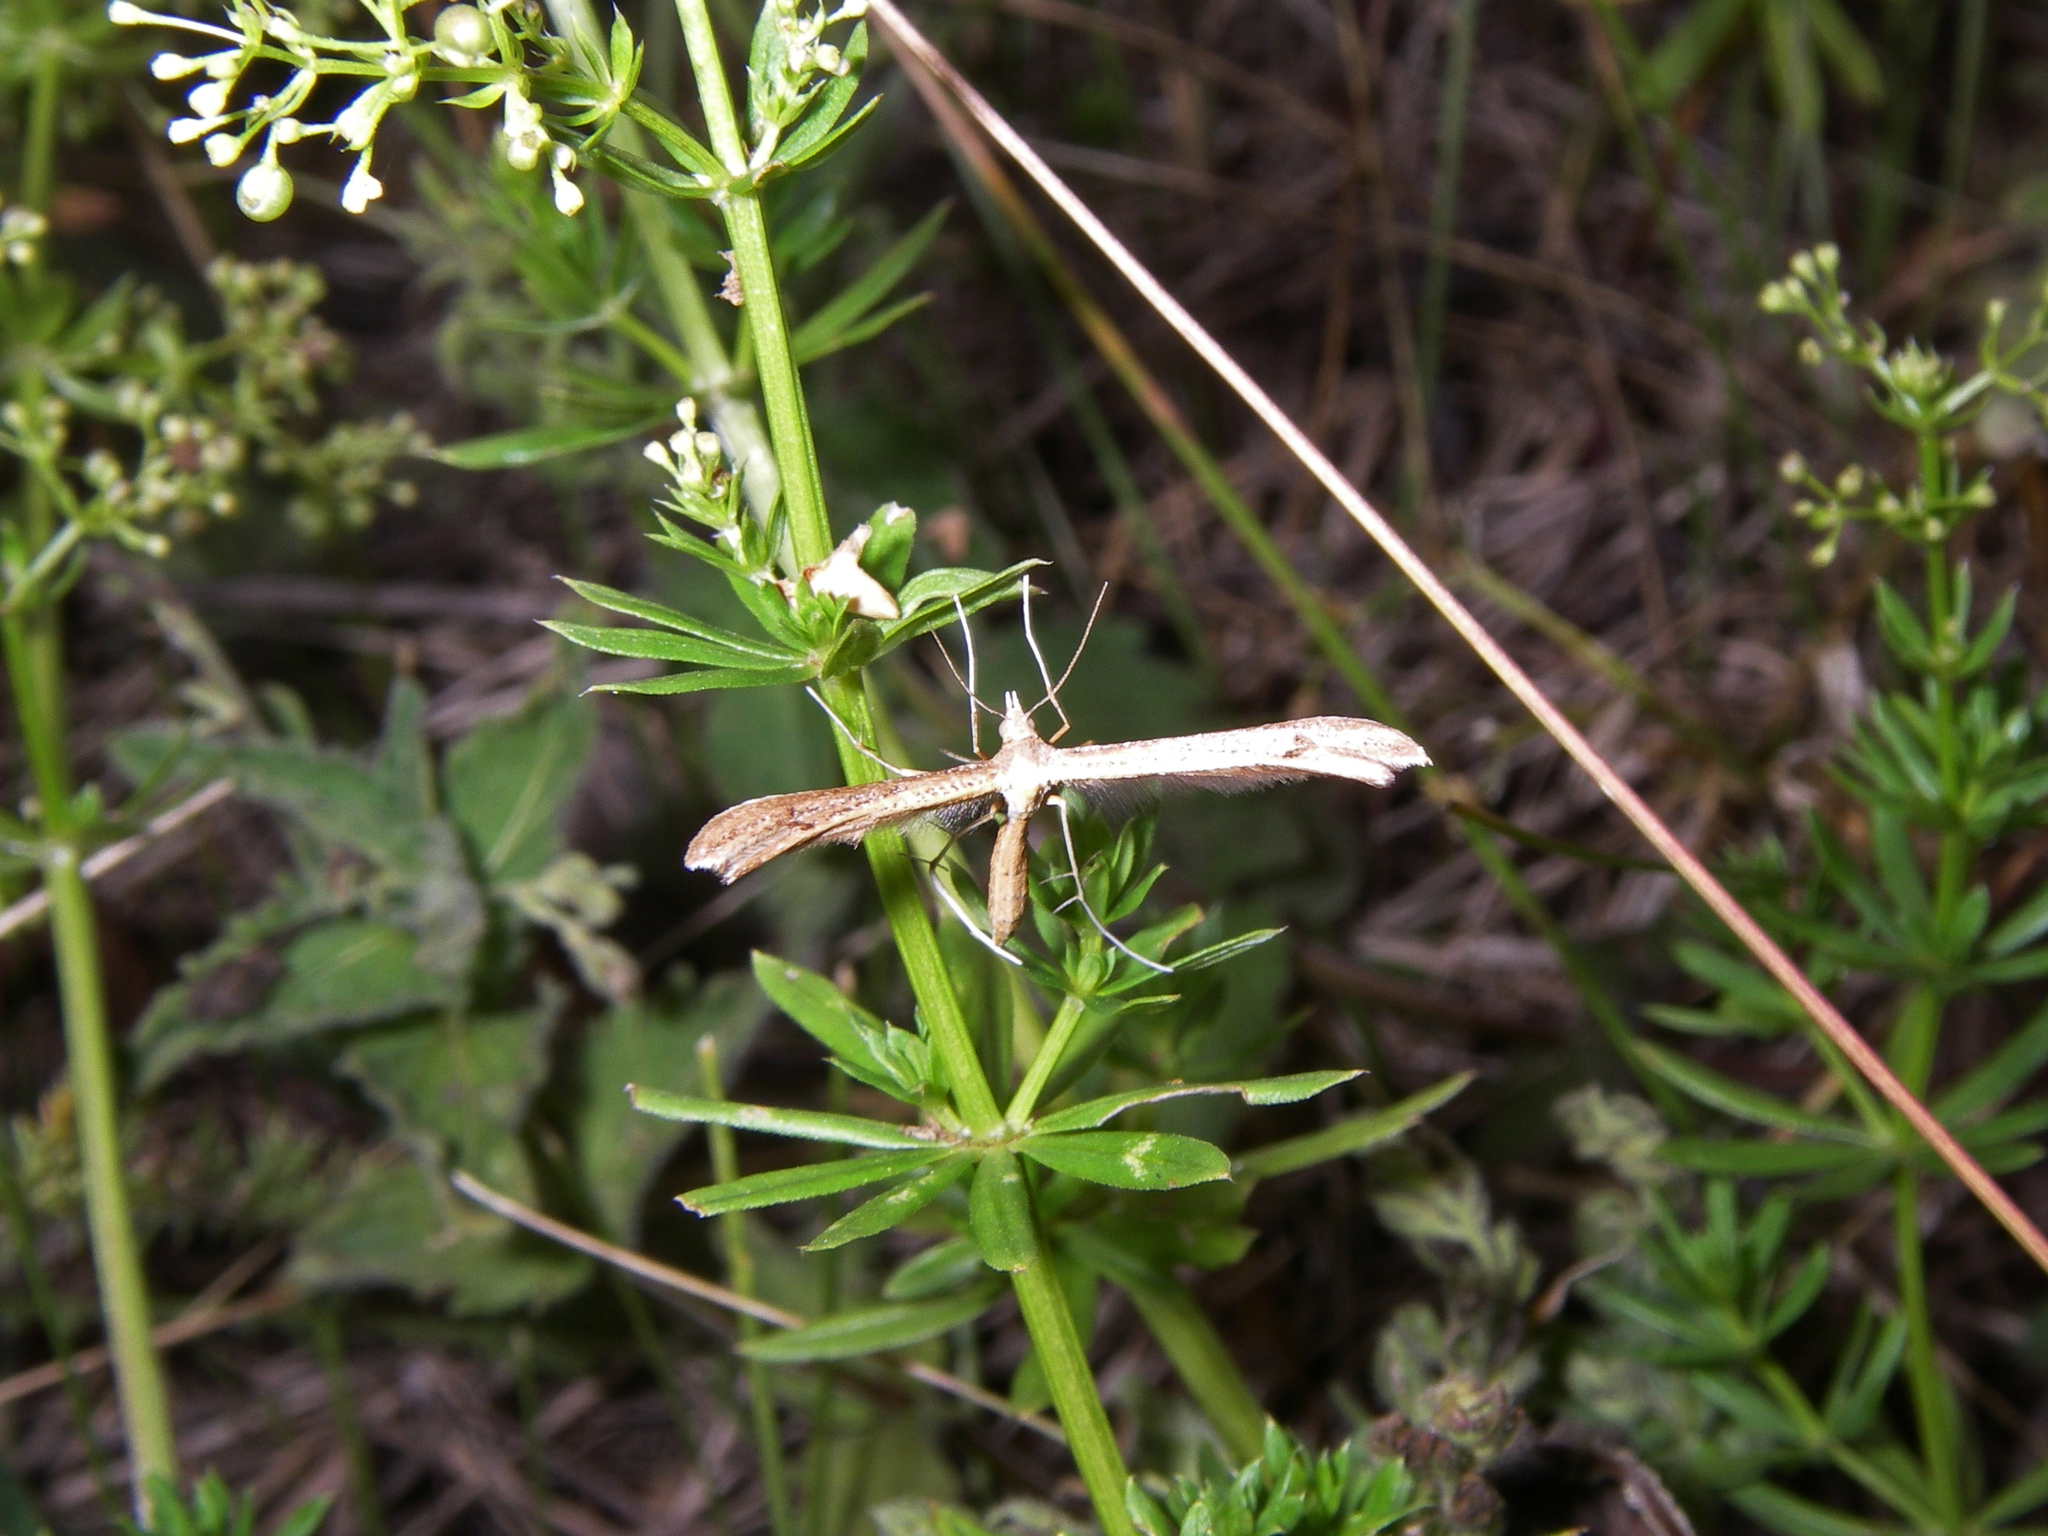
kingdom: Plantae
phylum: Tracheophyta
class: Magnoliopsida
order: Gentianales
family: Rubiaceae
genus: Galium
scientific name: Galium mollugo
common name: Hedge bedstraw
